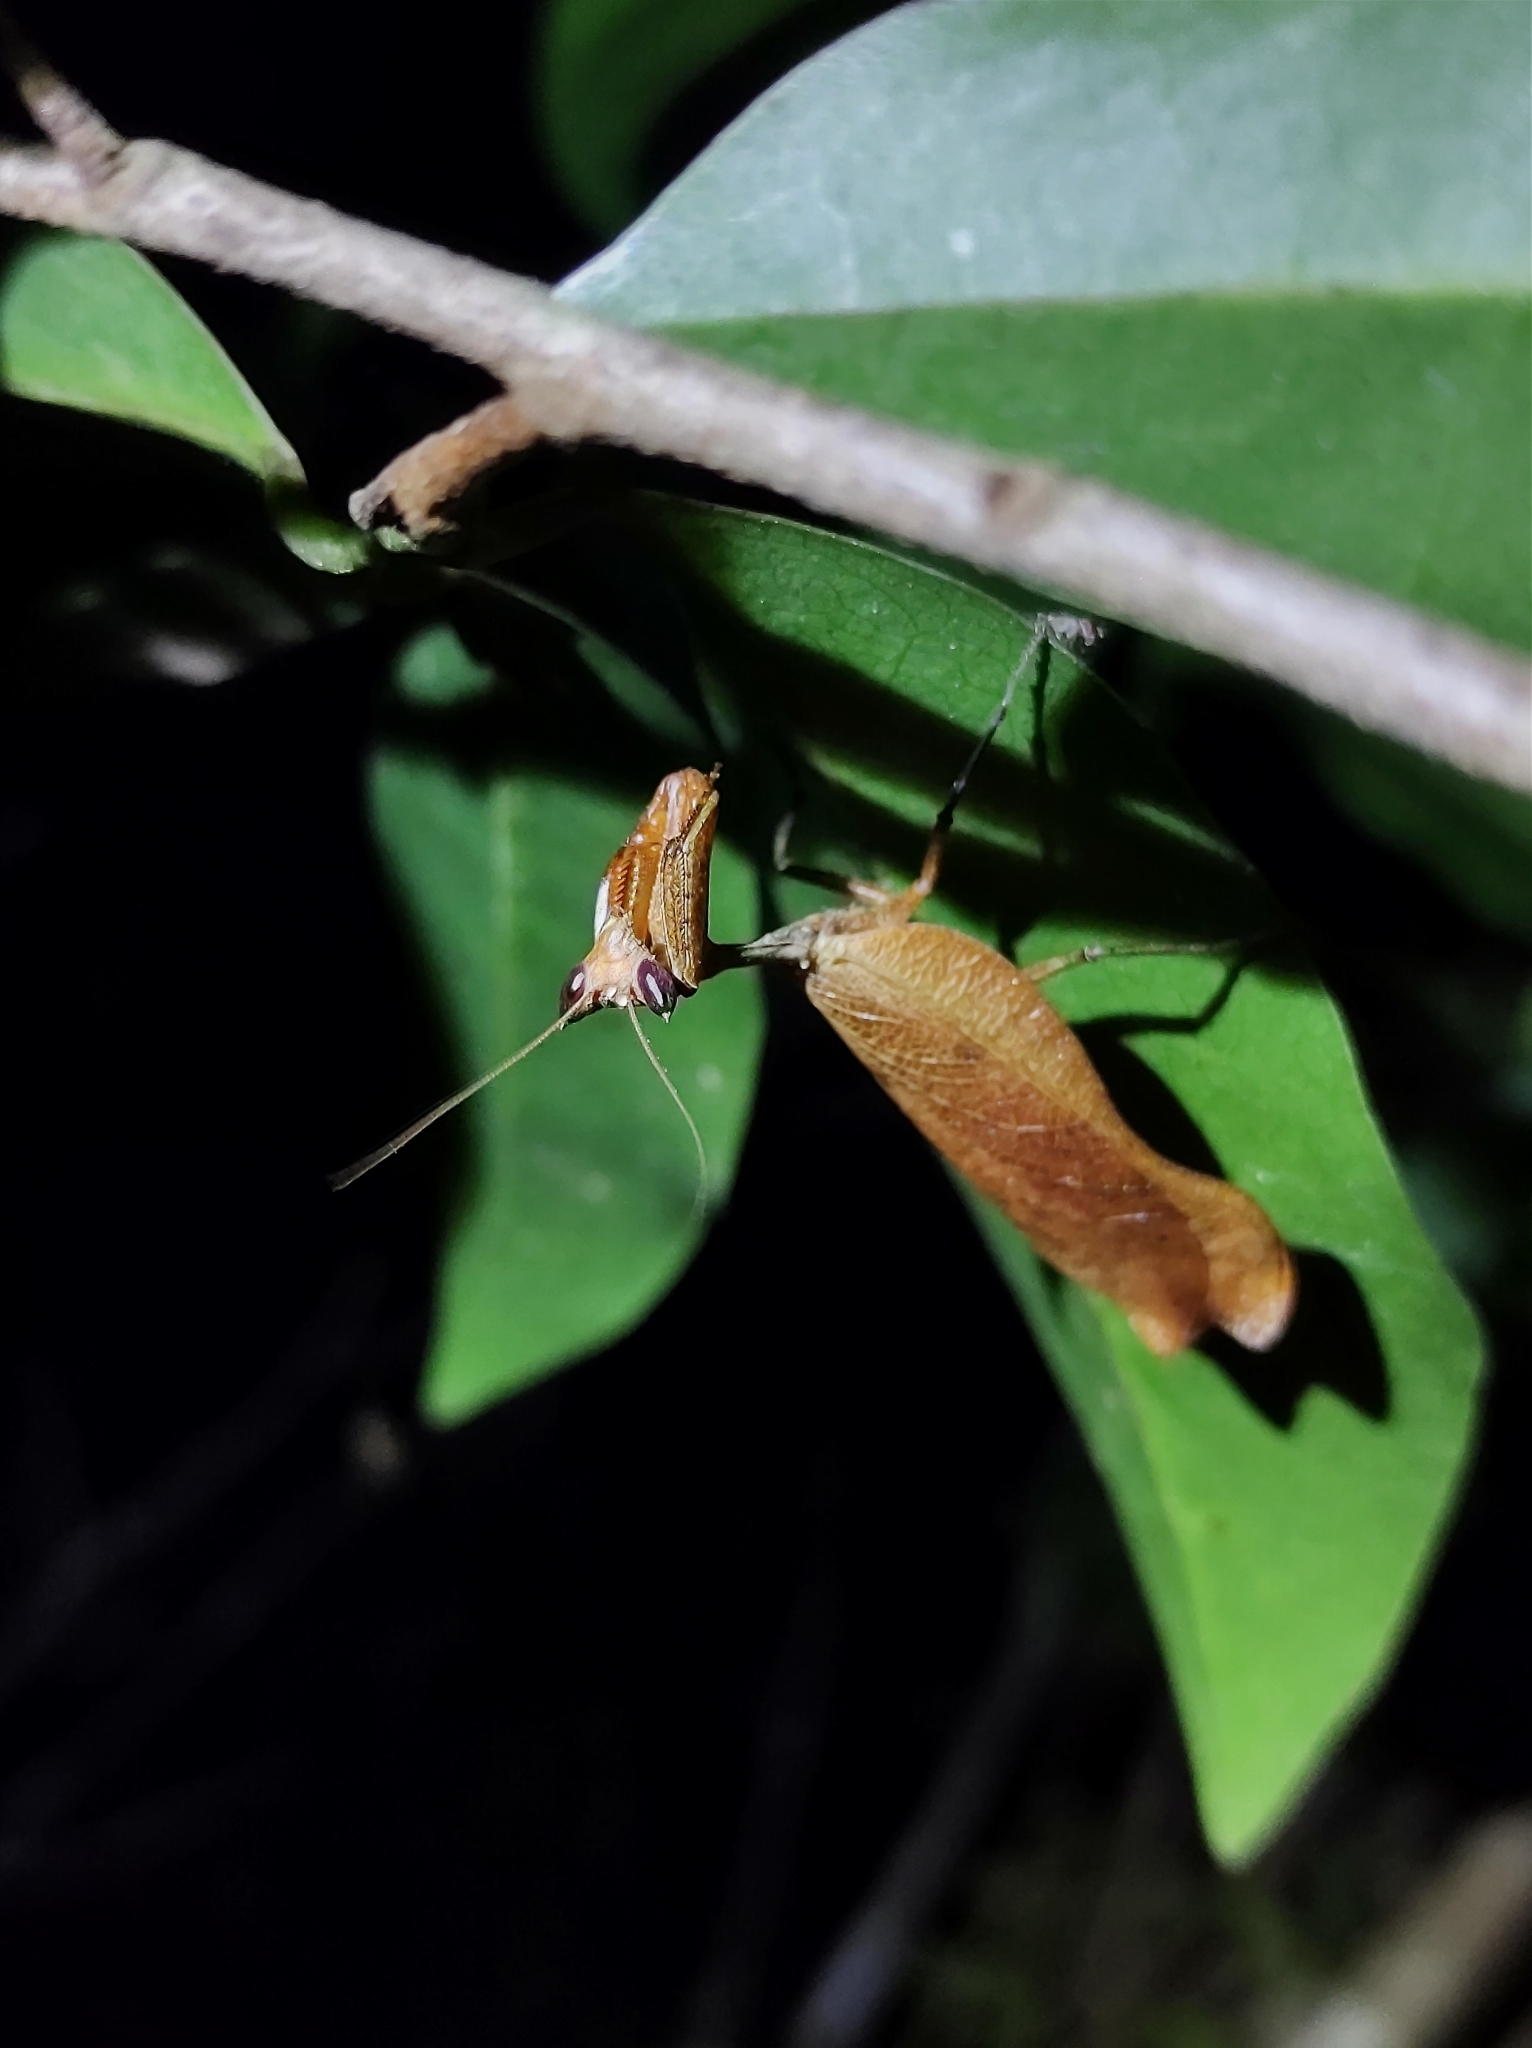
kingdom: Animalia
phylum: Arthropoda
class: Insecta
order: Mantodea
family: Acanthopidae
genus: Acanthops
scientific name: Acanthops godmani
